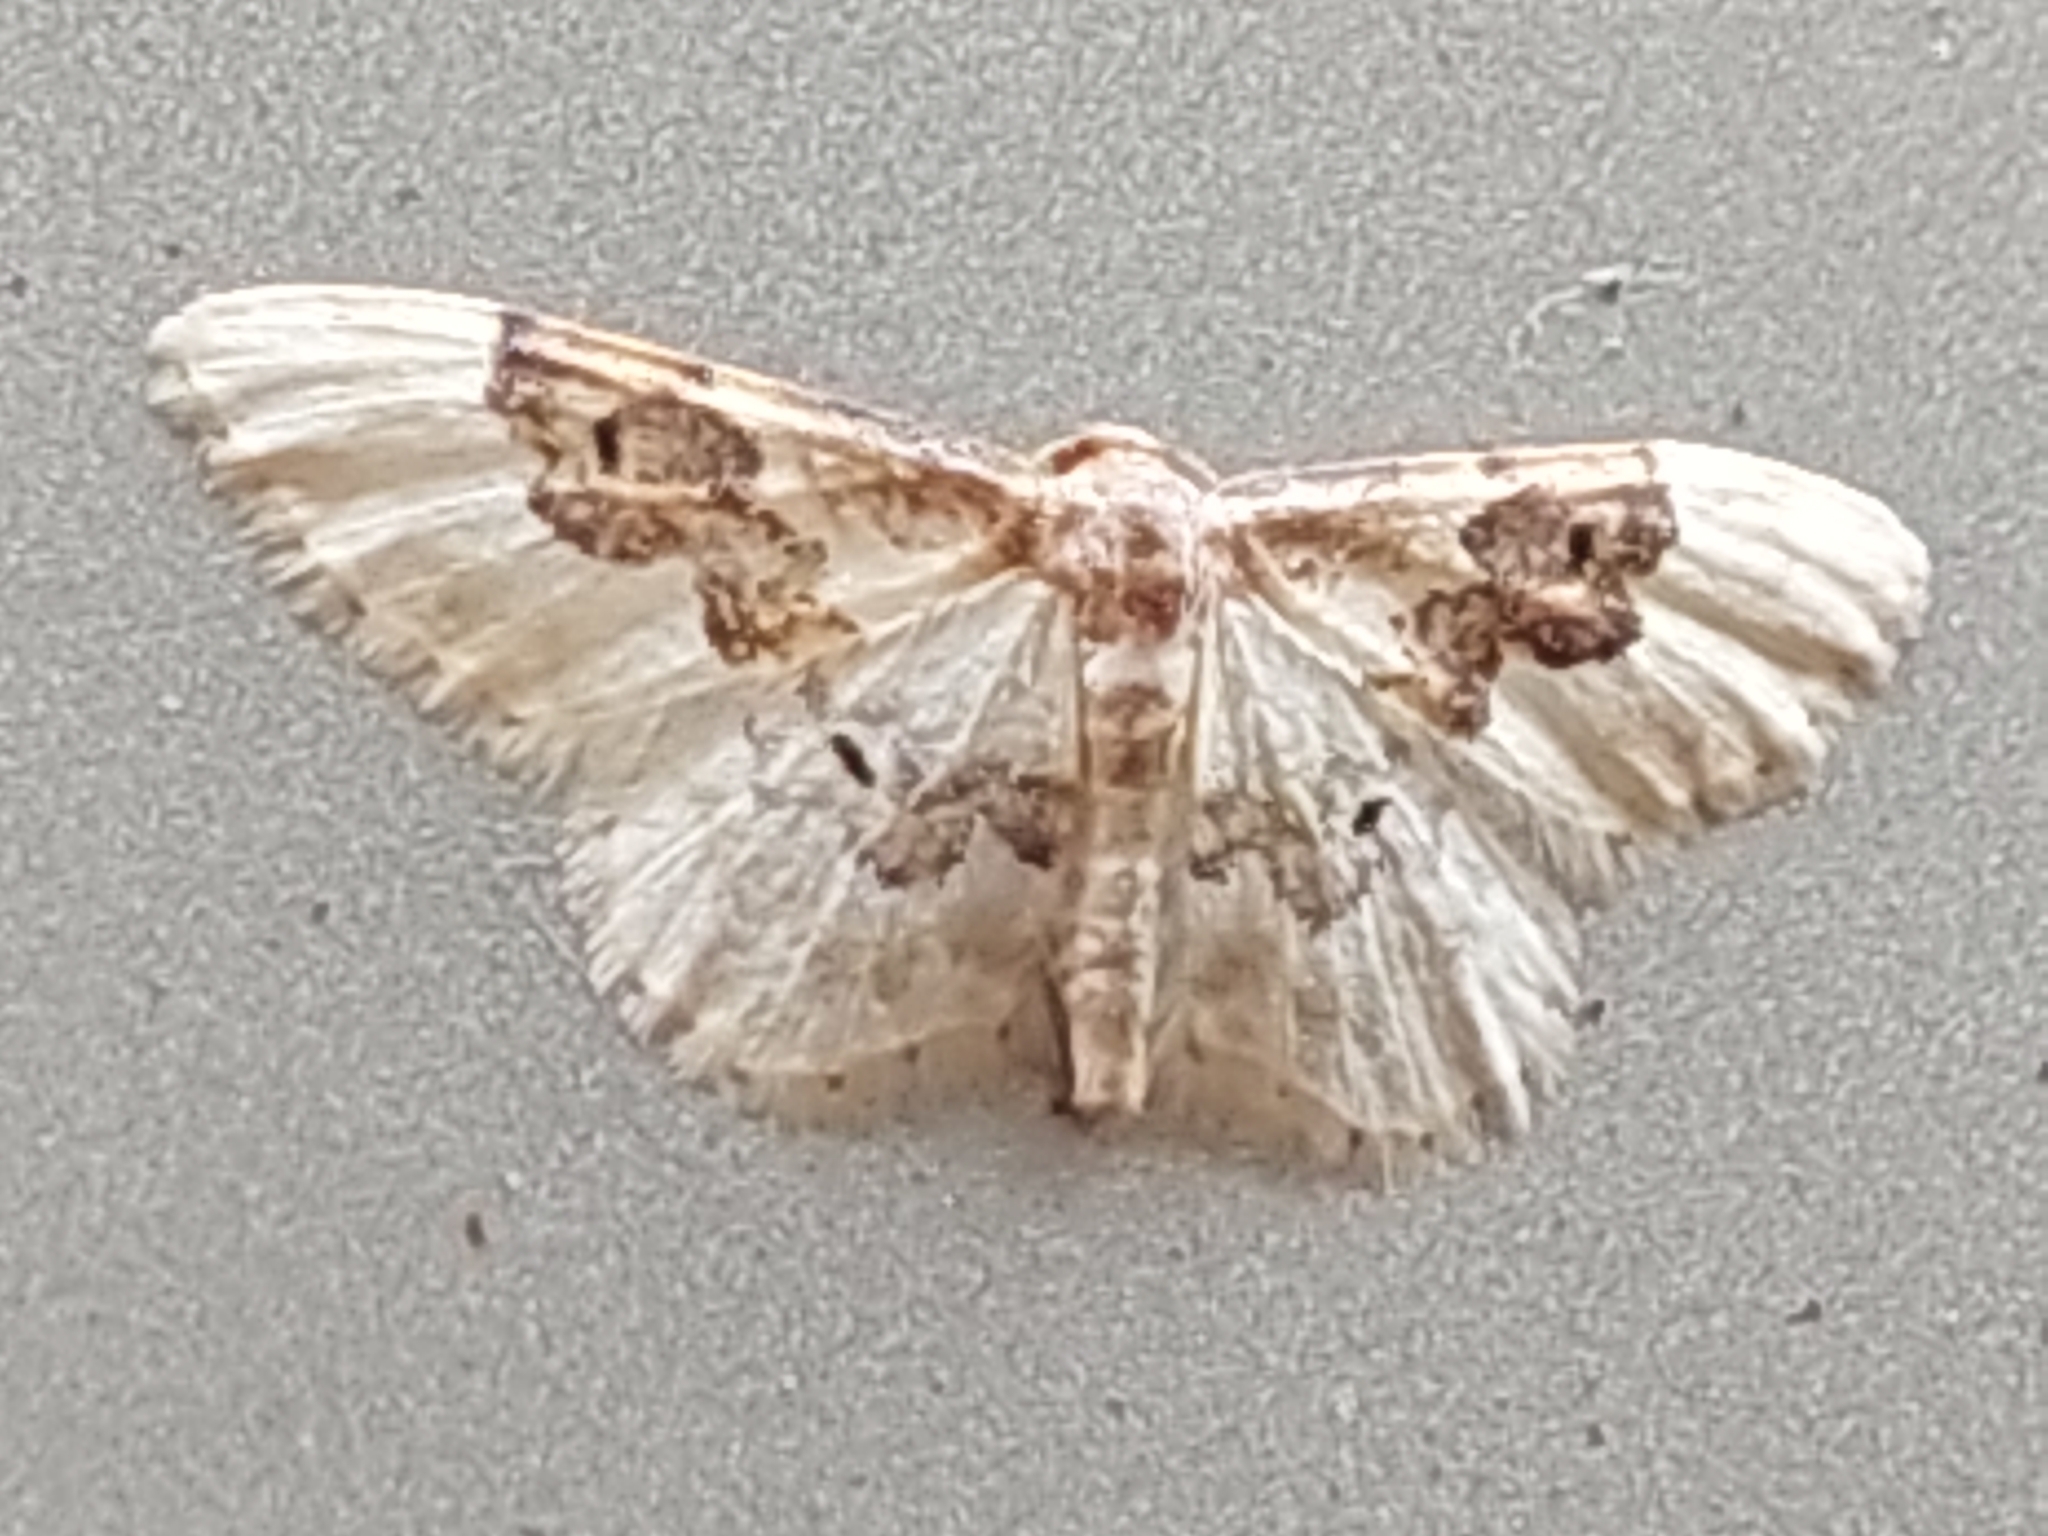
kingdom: Animalia
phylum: Arthropoda
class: Insecta
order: Lepidoptera
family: Geometridae
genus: Idaea
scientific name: Idaea rusticata
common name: Least carpet
